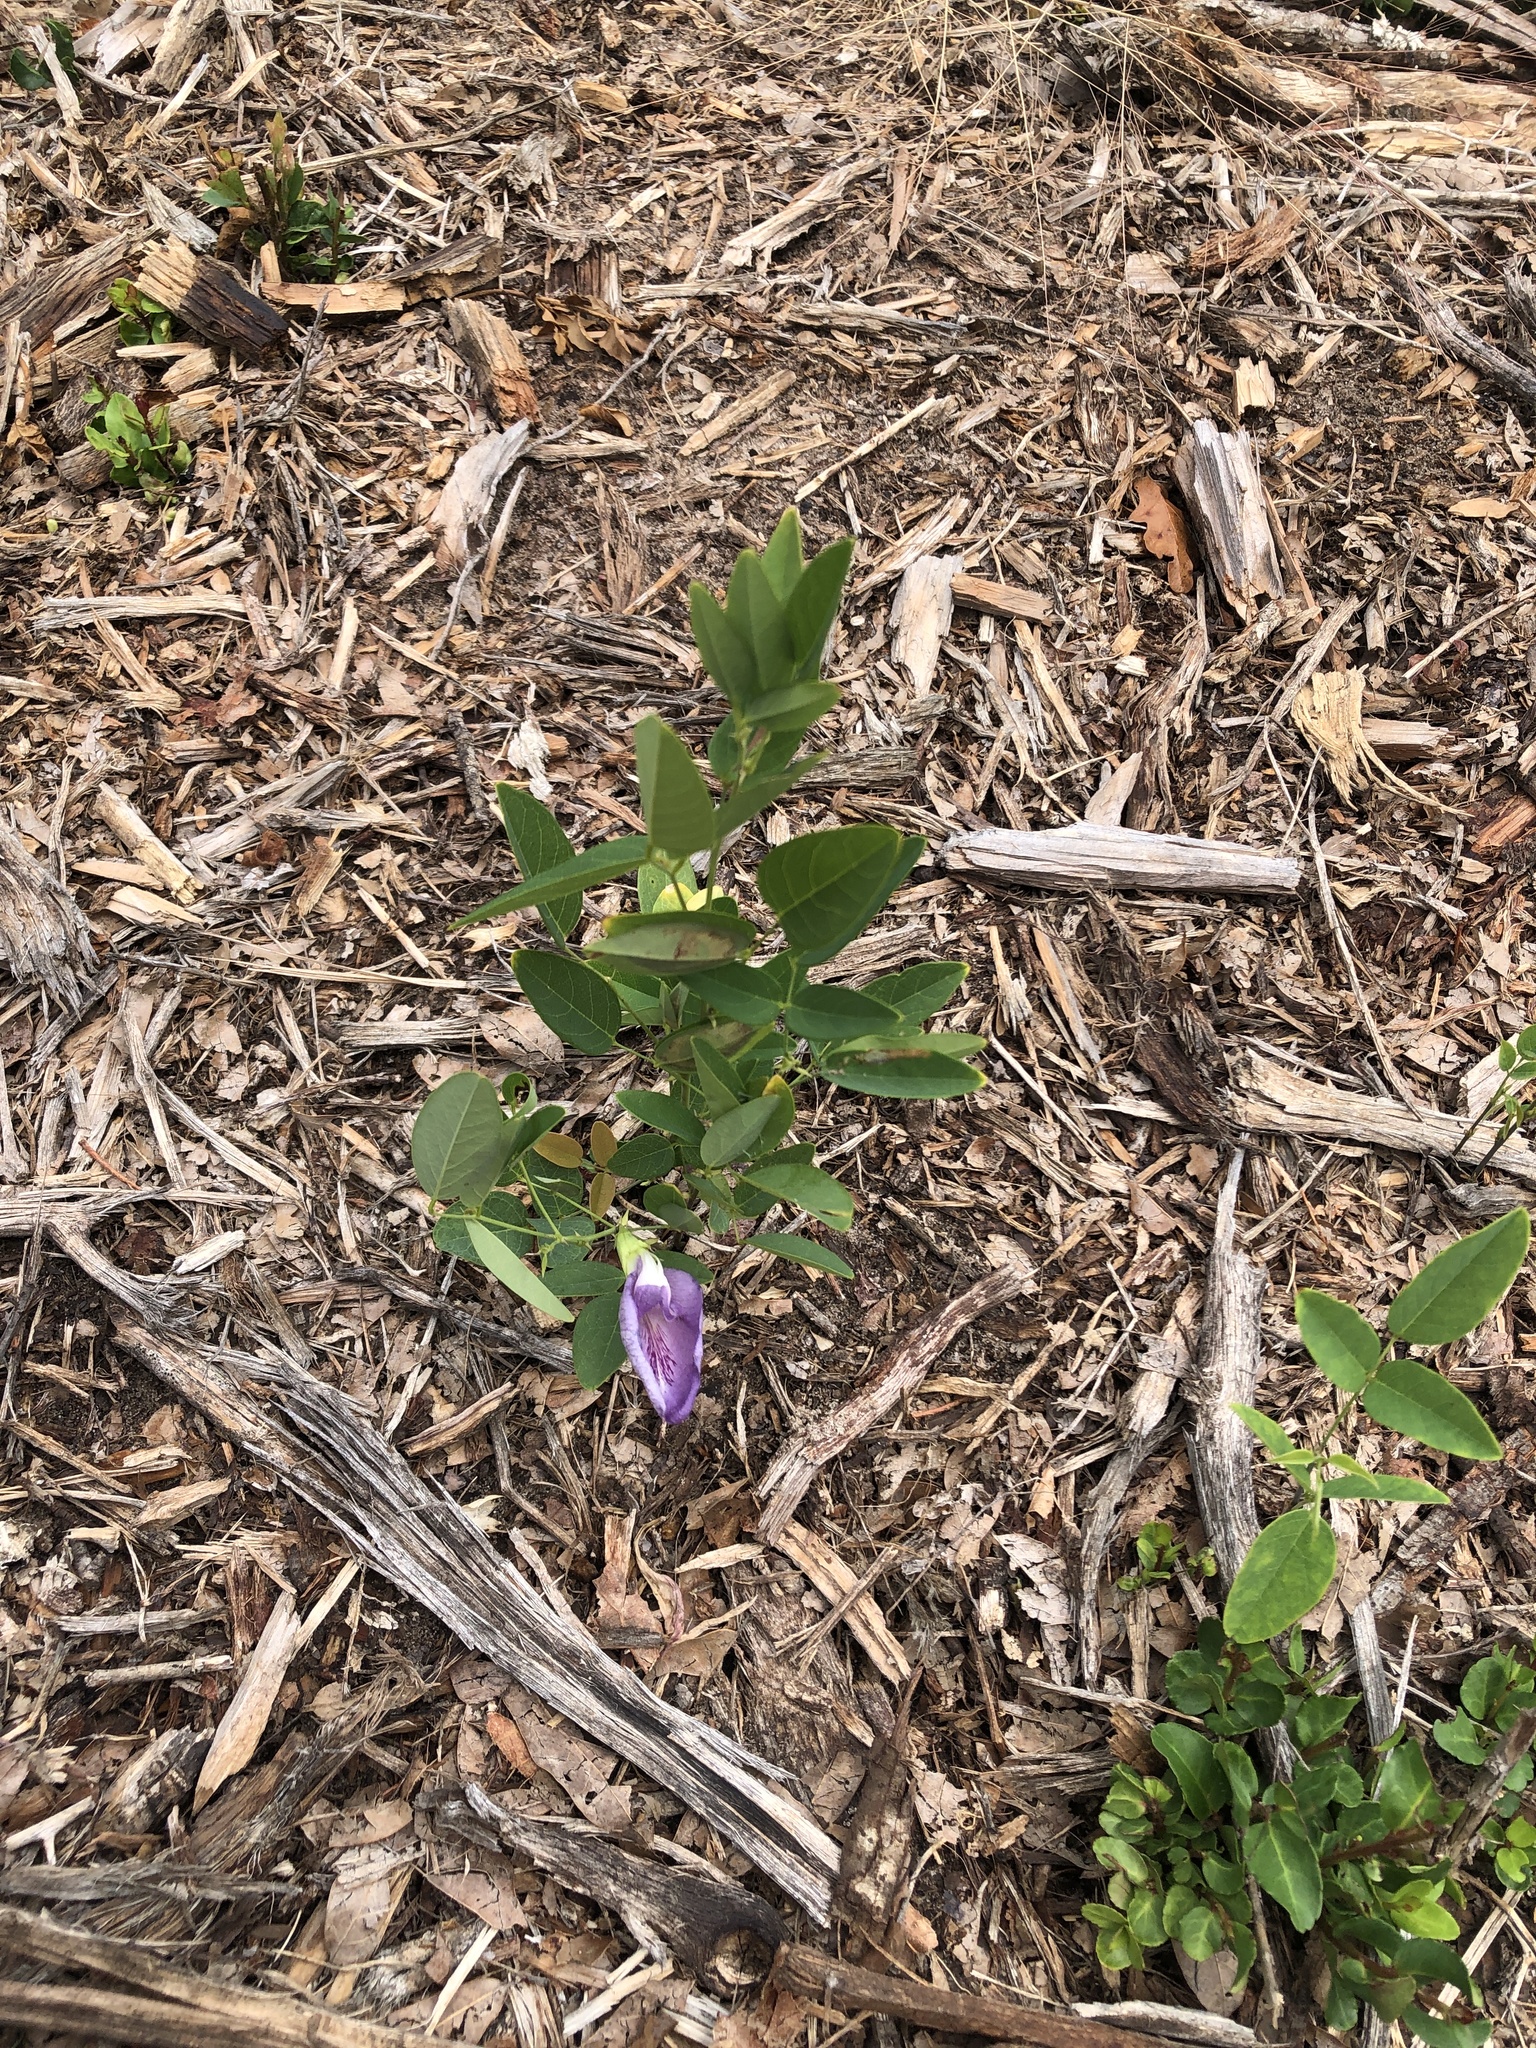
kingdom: Plantae
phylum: Tracheophyta
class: Magnoliopsida
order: Fabales
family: Fabaceae
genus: Clitoria
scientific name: Clitoria mariana
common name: Butterfly-pea
